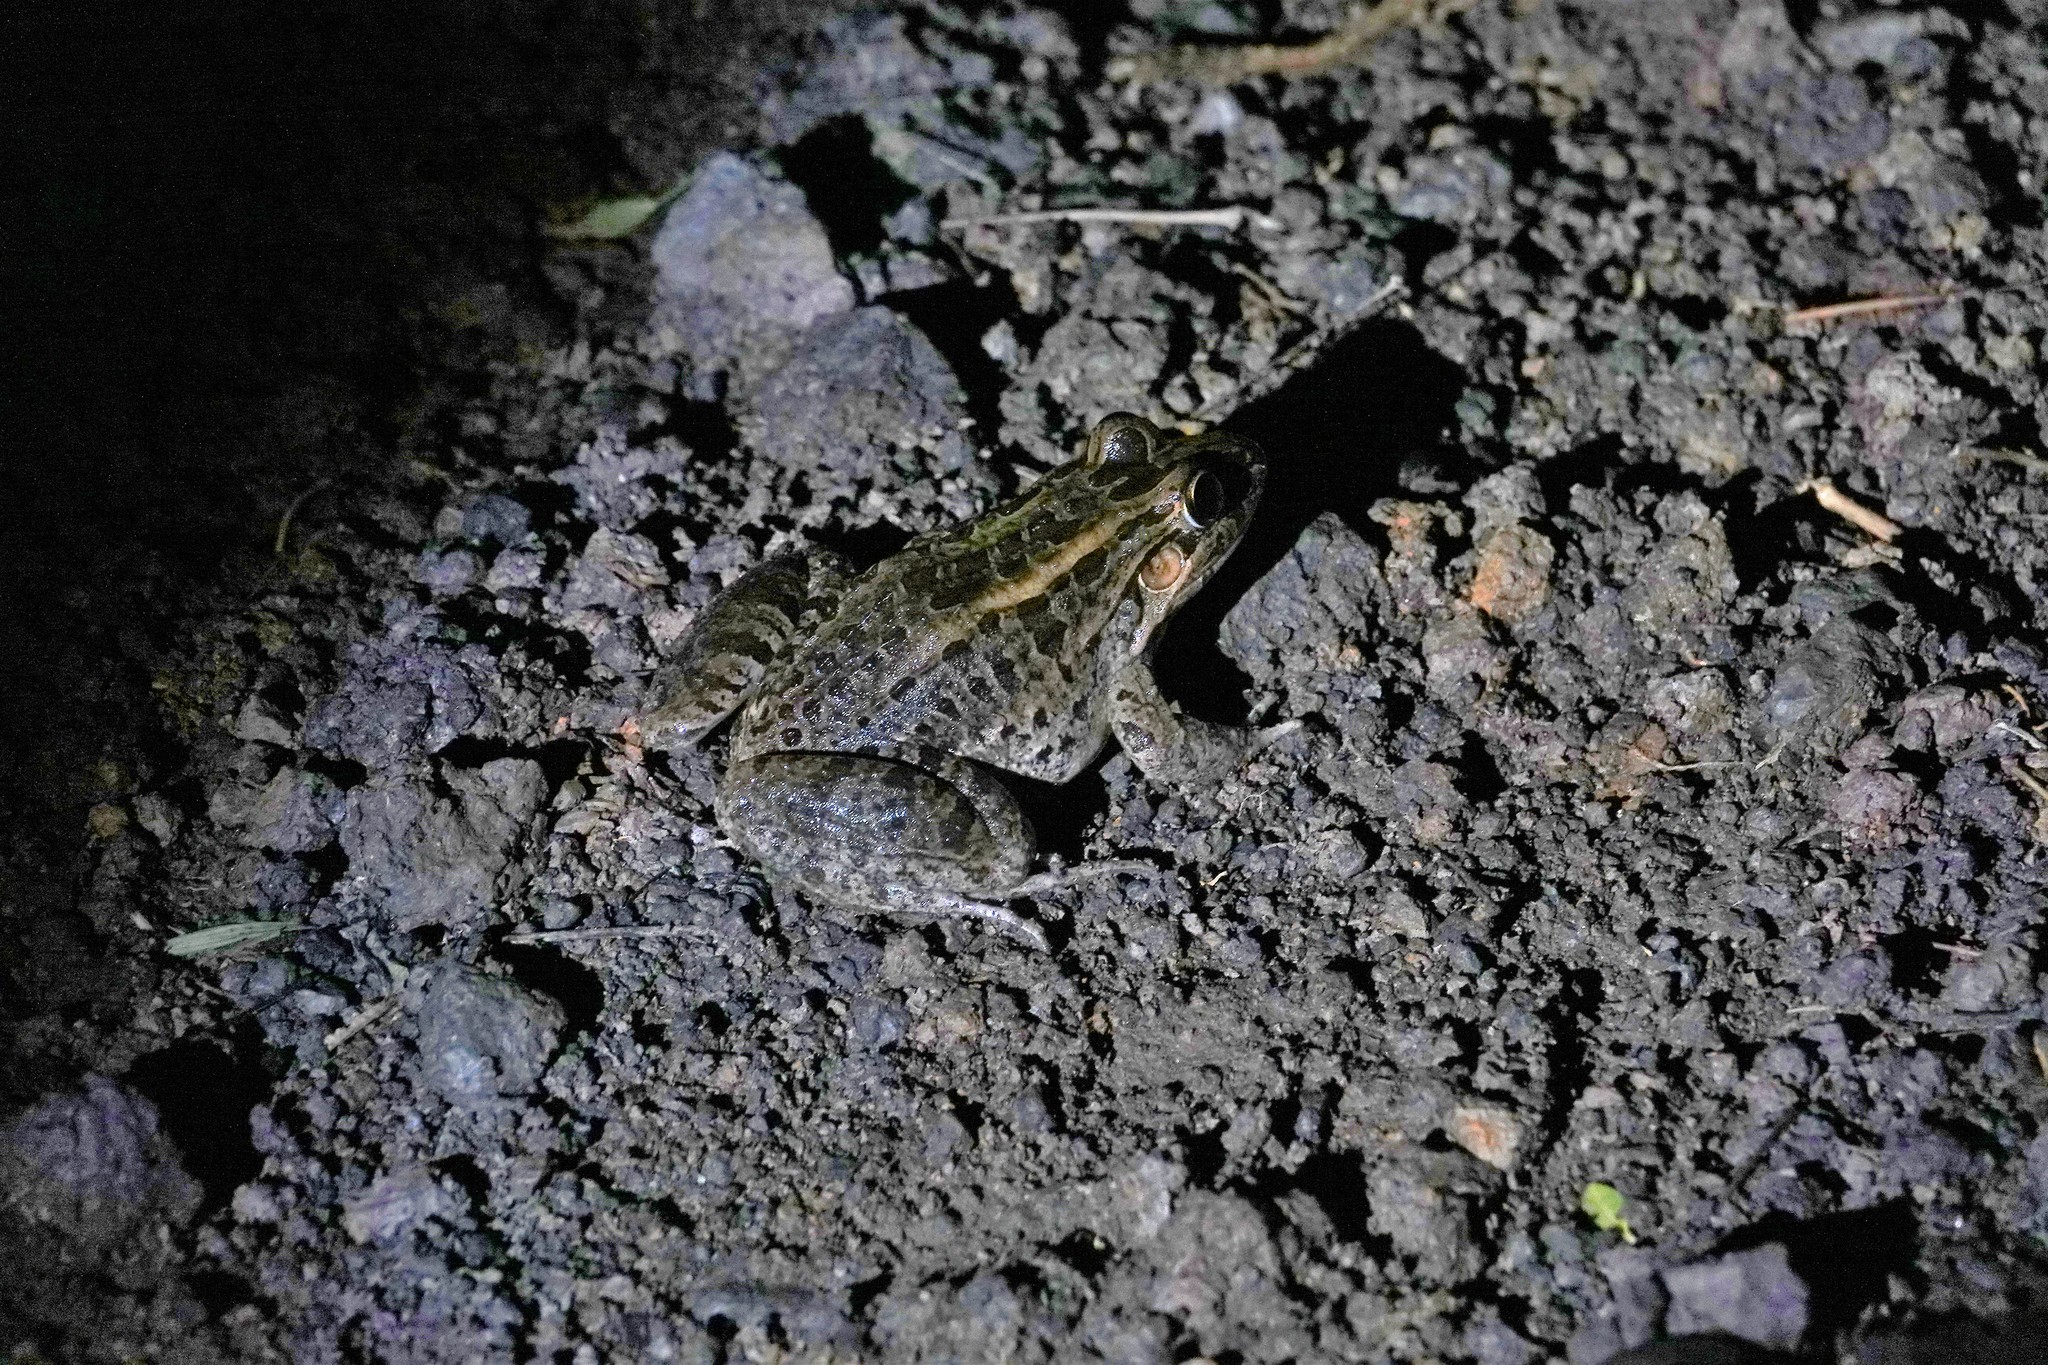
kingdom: Animalia
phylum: Chordata
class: Amphibia
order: Anura
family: Leptodactylidae
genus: Leptodactylus
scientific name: Leptodactylus macrosternum
